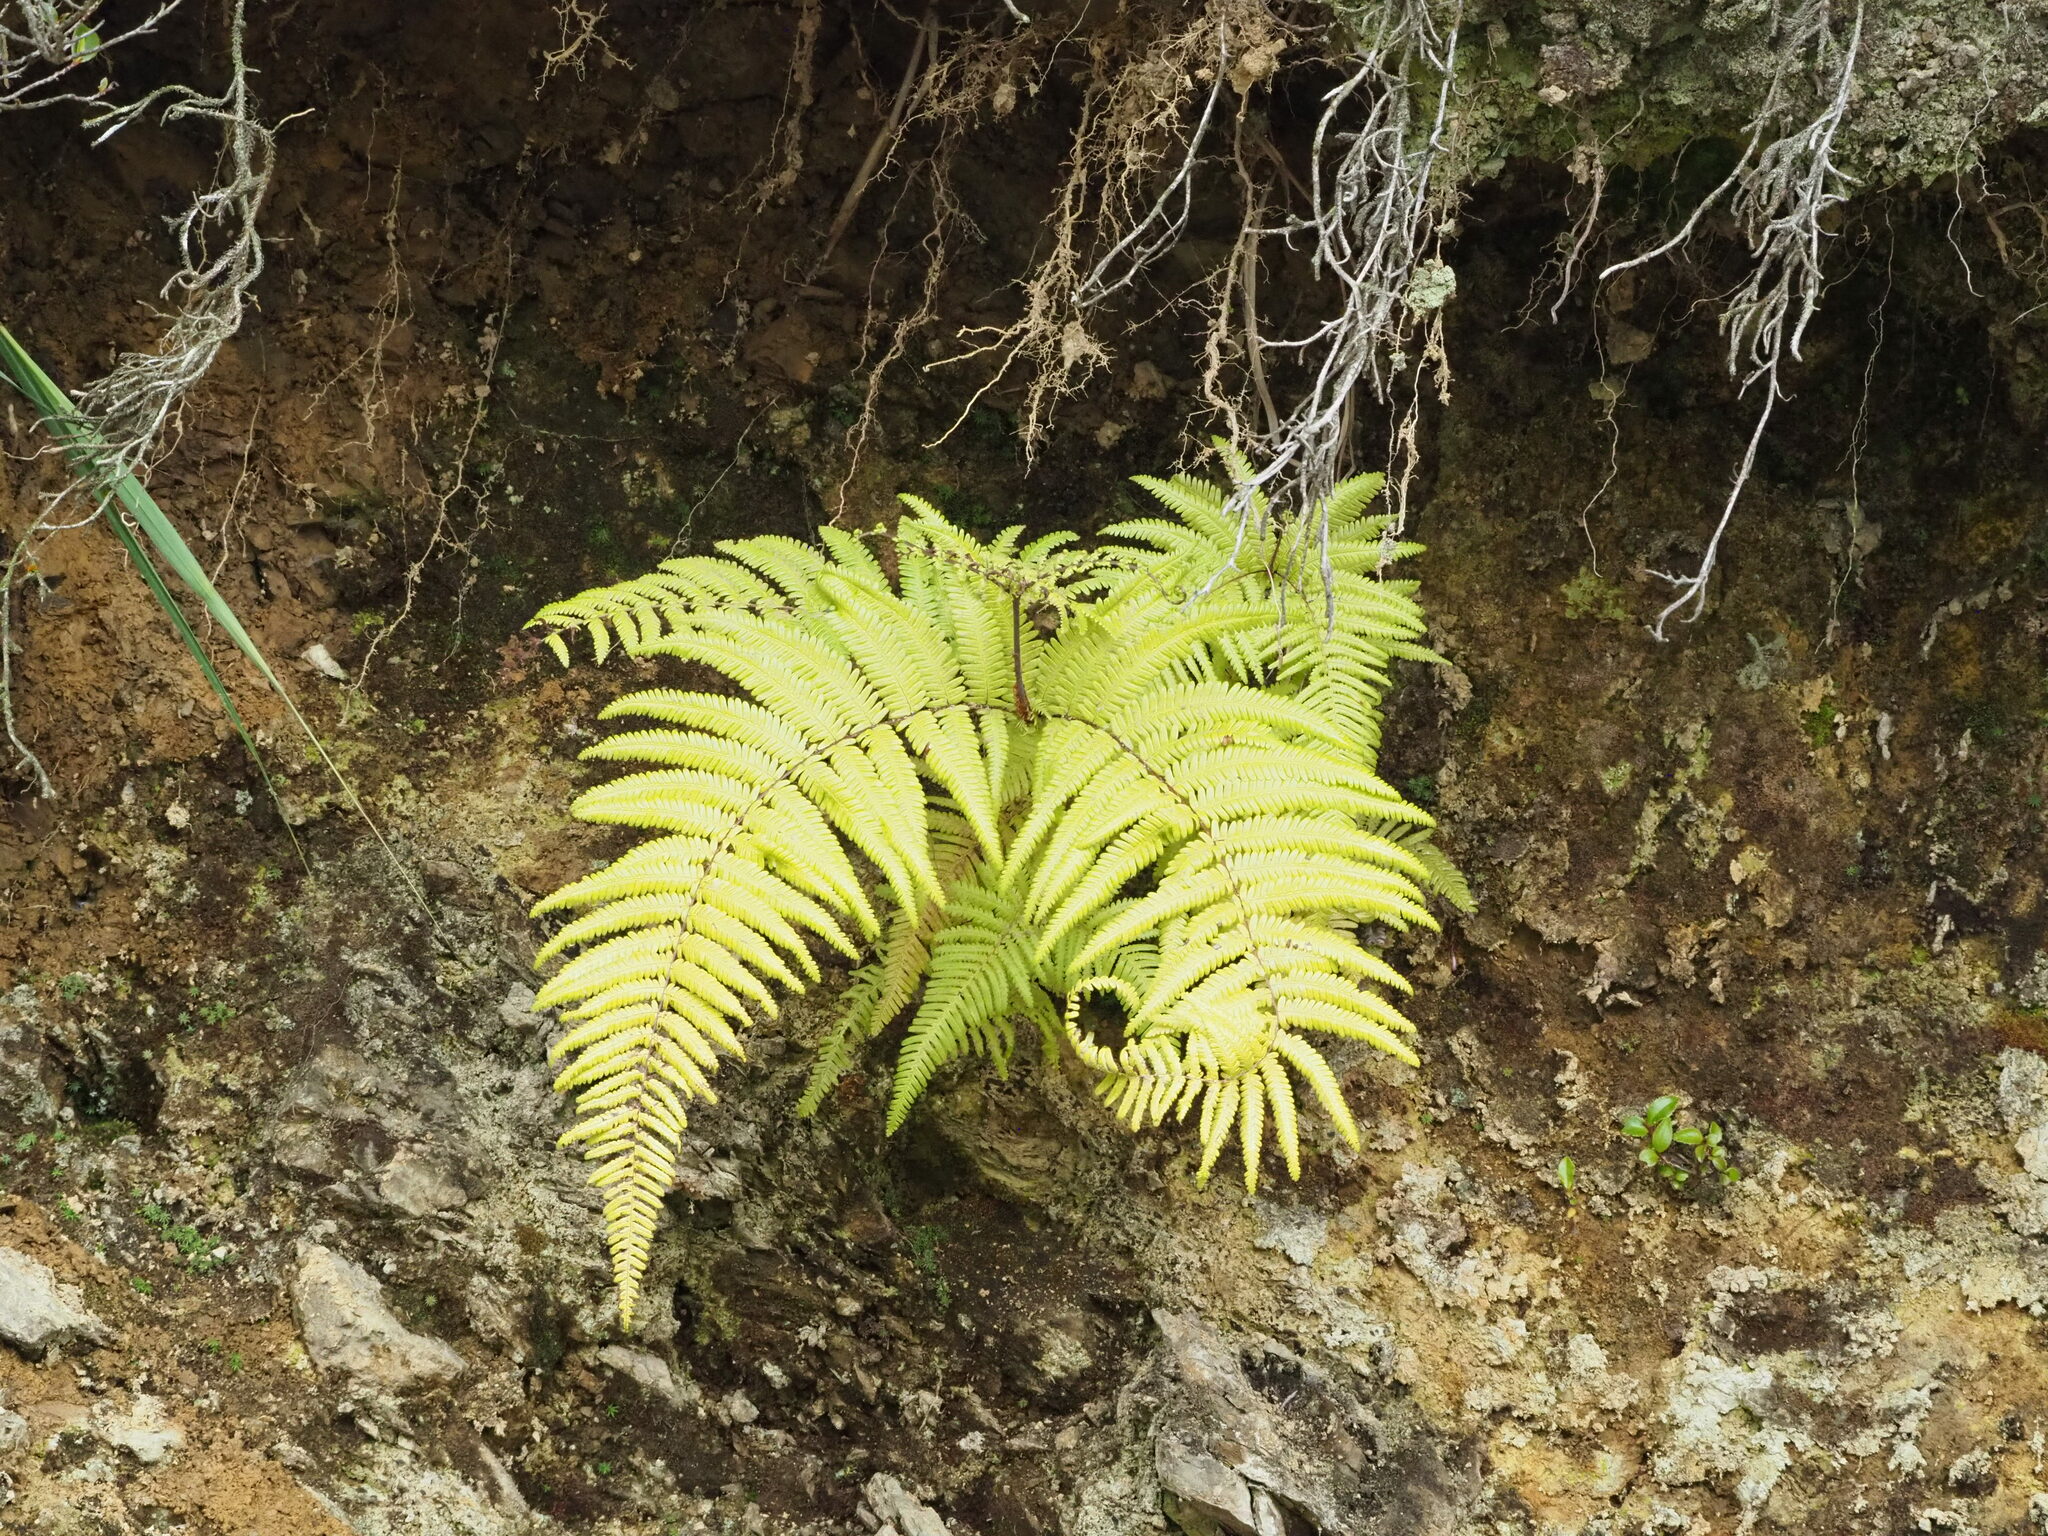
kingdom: Plantae
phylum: Tracheophyta
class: Polypodiopsida
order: Gleicheniales
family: Gleicheniaceae
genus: Diplopterygium
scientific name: Diplopterygium glaucum
